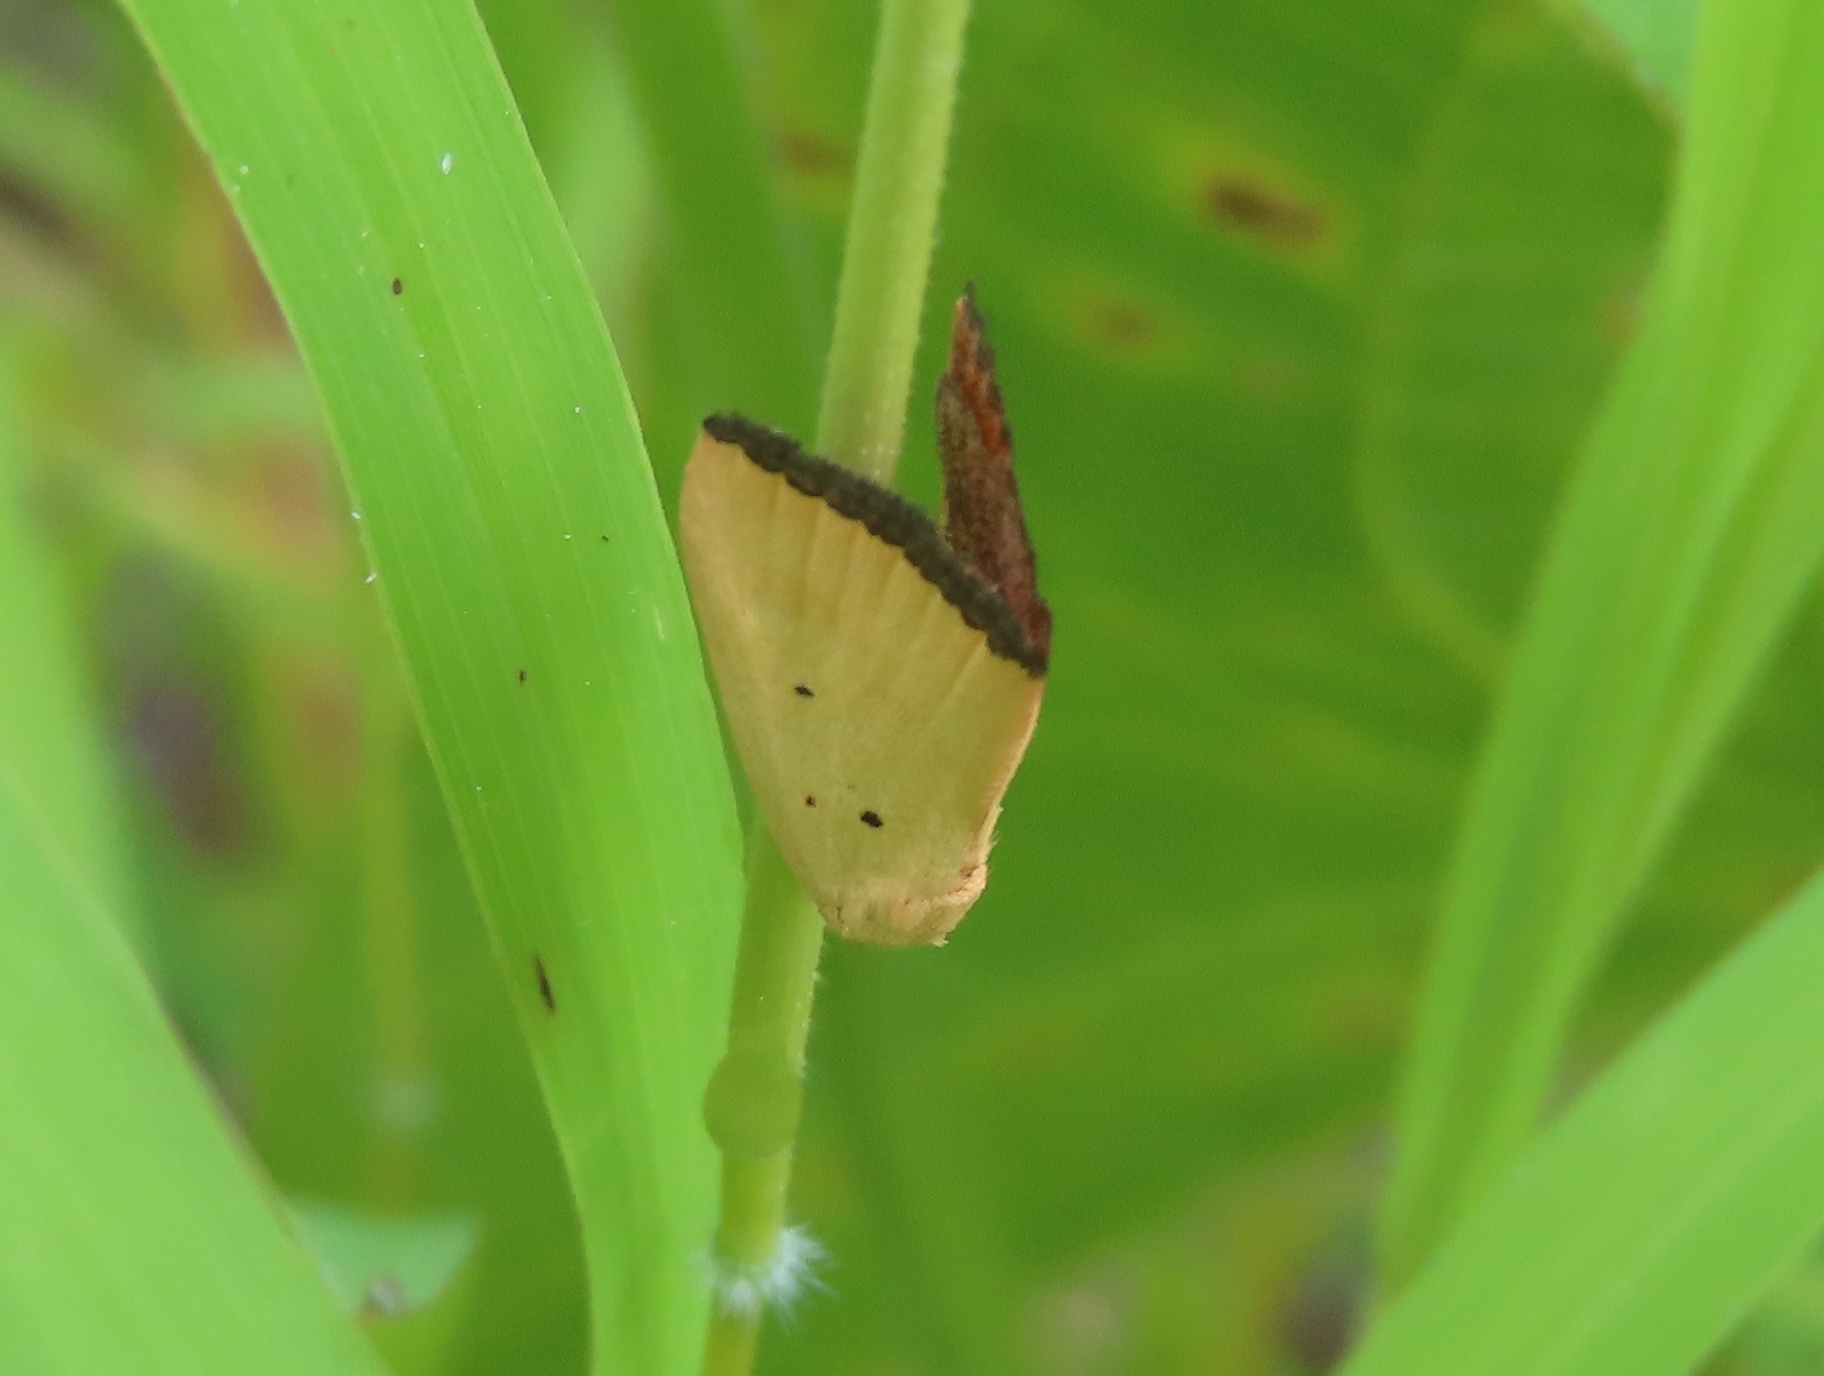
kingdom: Animalia
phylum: Arthropoda
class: Insecta
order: Lepidoptera
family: Noctuidae
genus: Marimatha
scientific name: Marimatha nigrofimbria
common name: Black-bordered lemon moth
